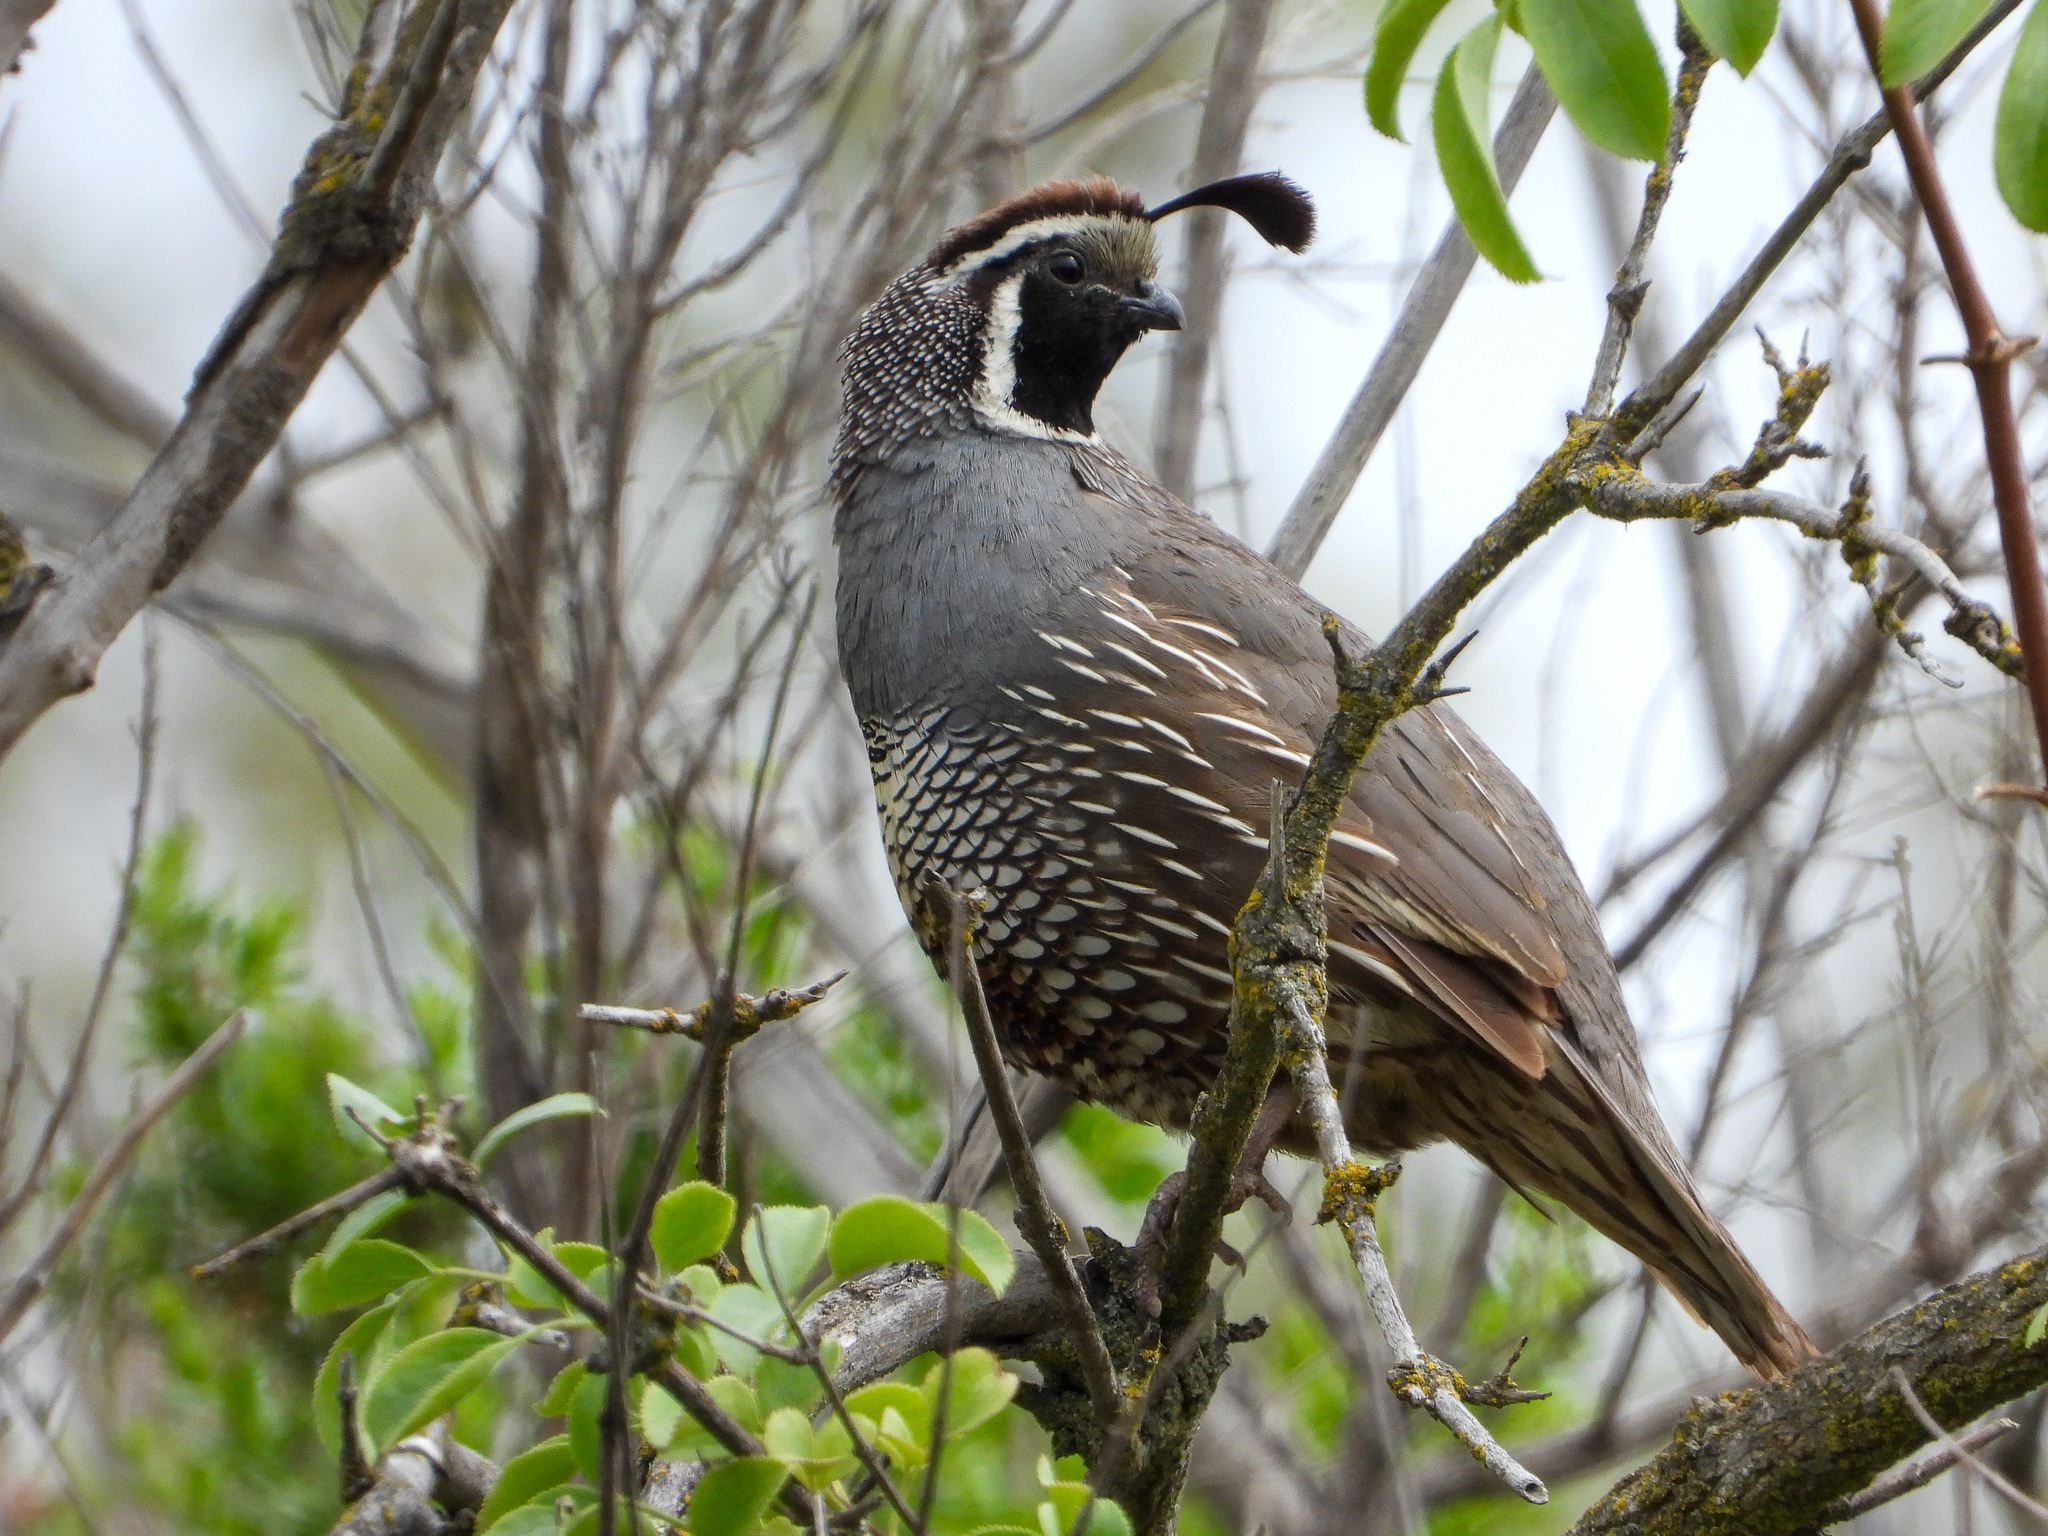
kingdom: Animalia
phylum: Chordata
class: Aves
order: Galliformes
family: Odontophoridae
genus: Callipepla
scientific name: Callipepla californica
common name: California quail
